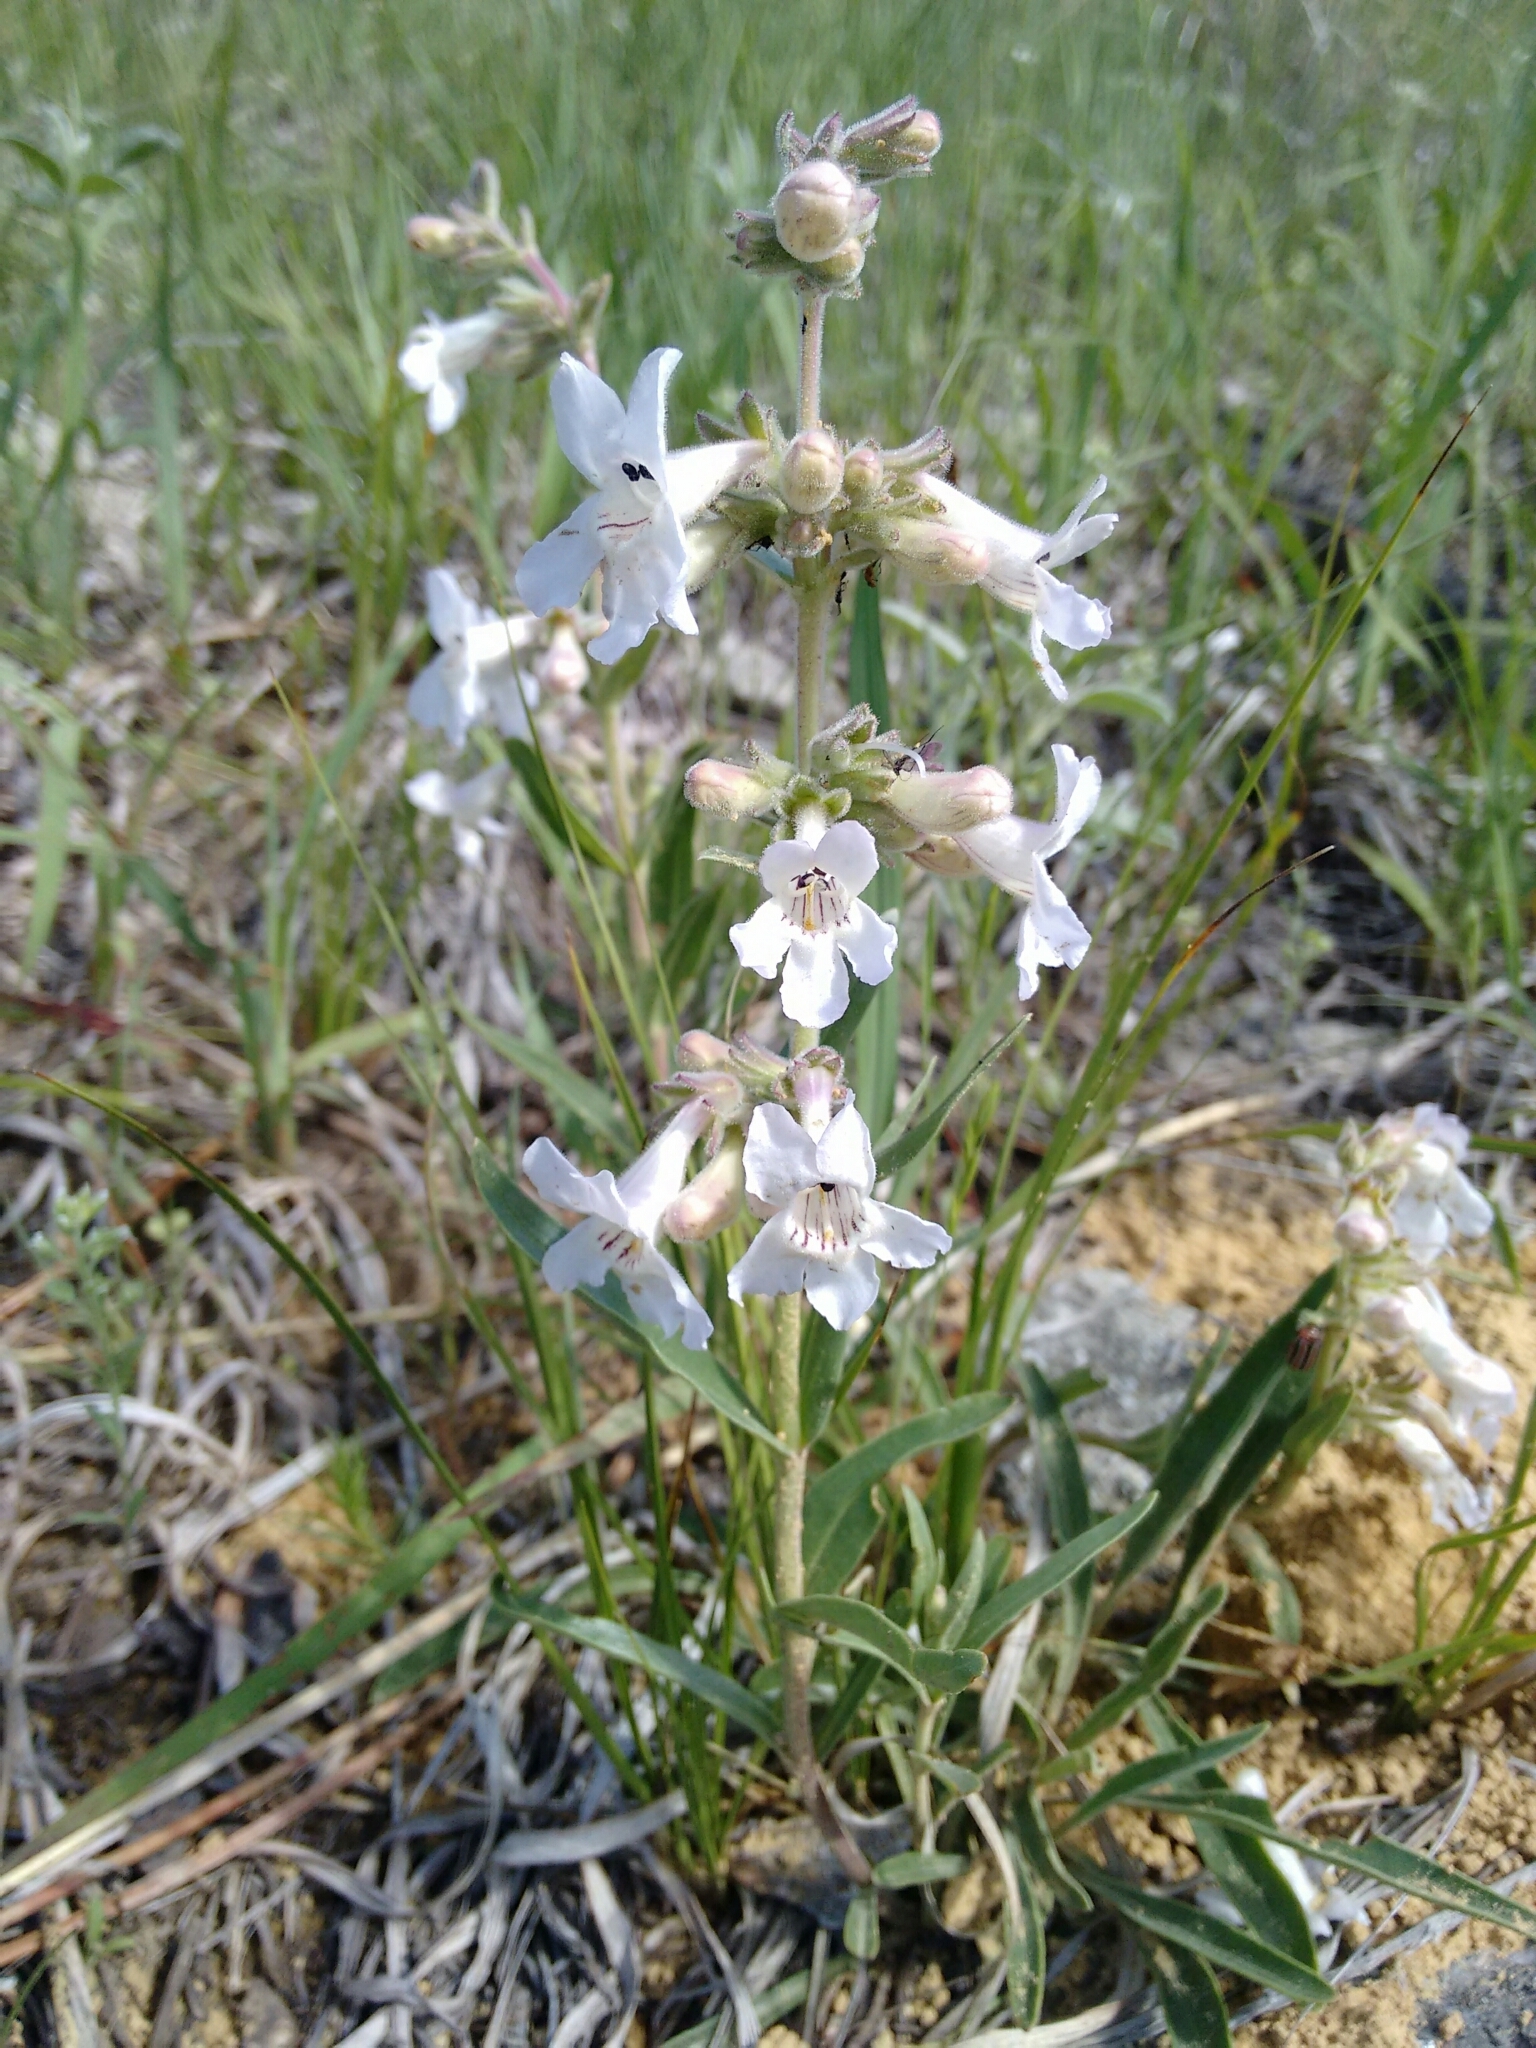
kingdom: Plantae
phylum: Tracheophyta
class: Magnoliopsida
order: Lamiales
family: Plantaginaceae
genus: Penstemon
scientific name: Penstemon albidus
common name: White beardtongue
